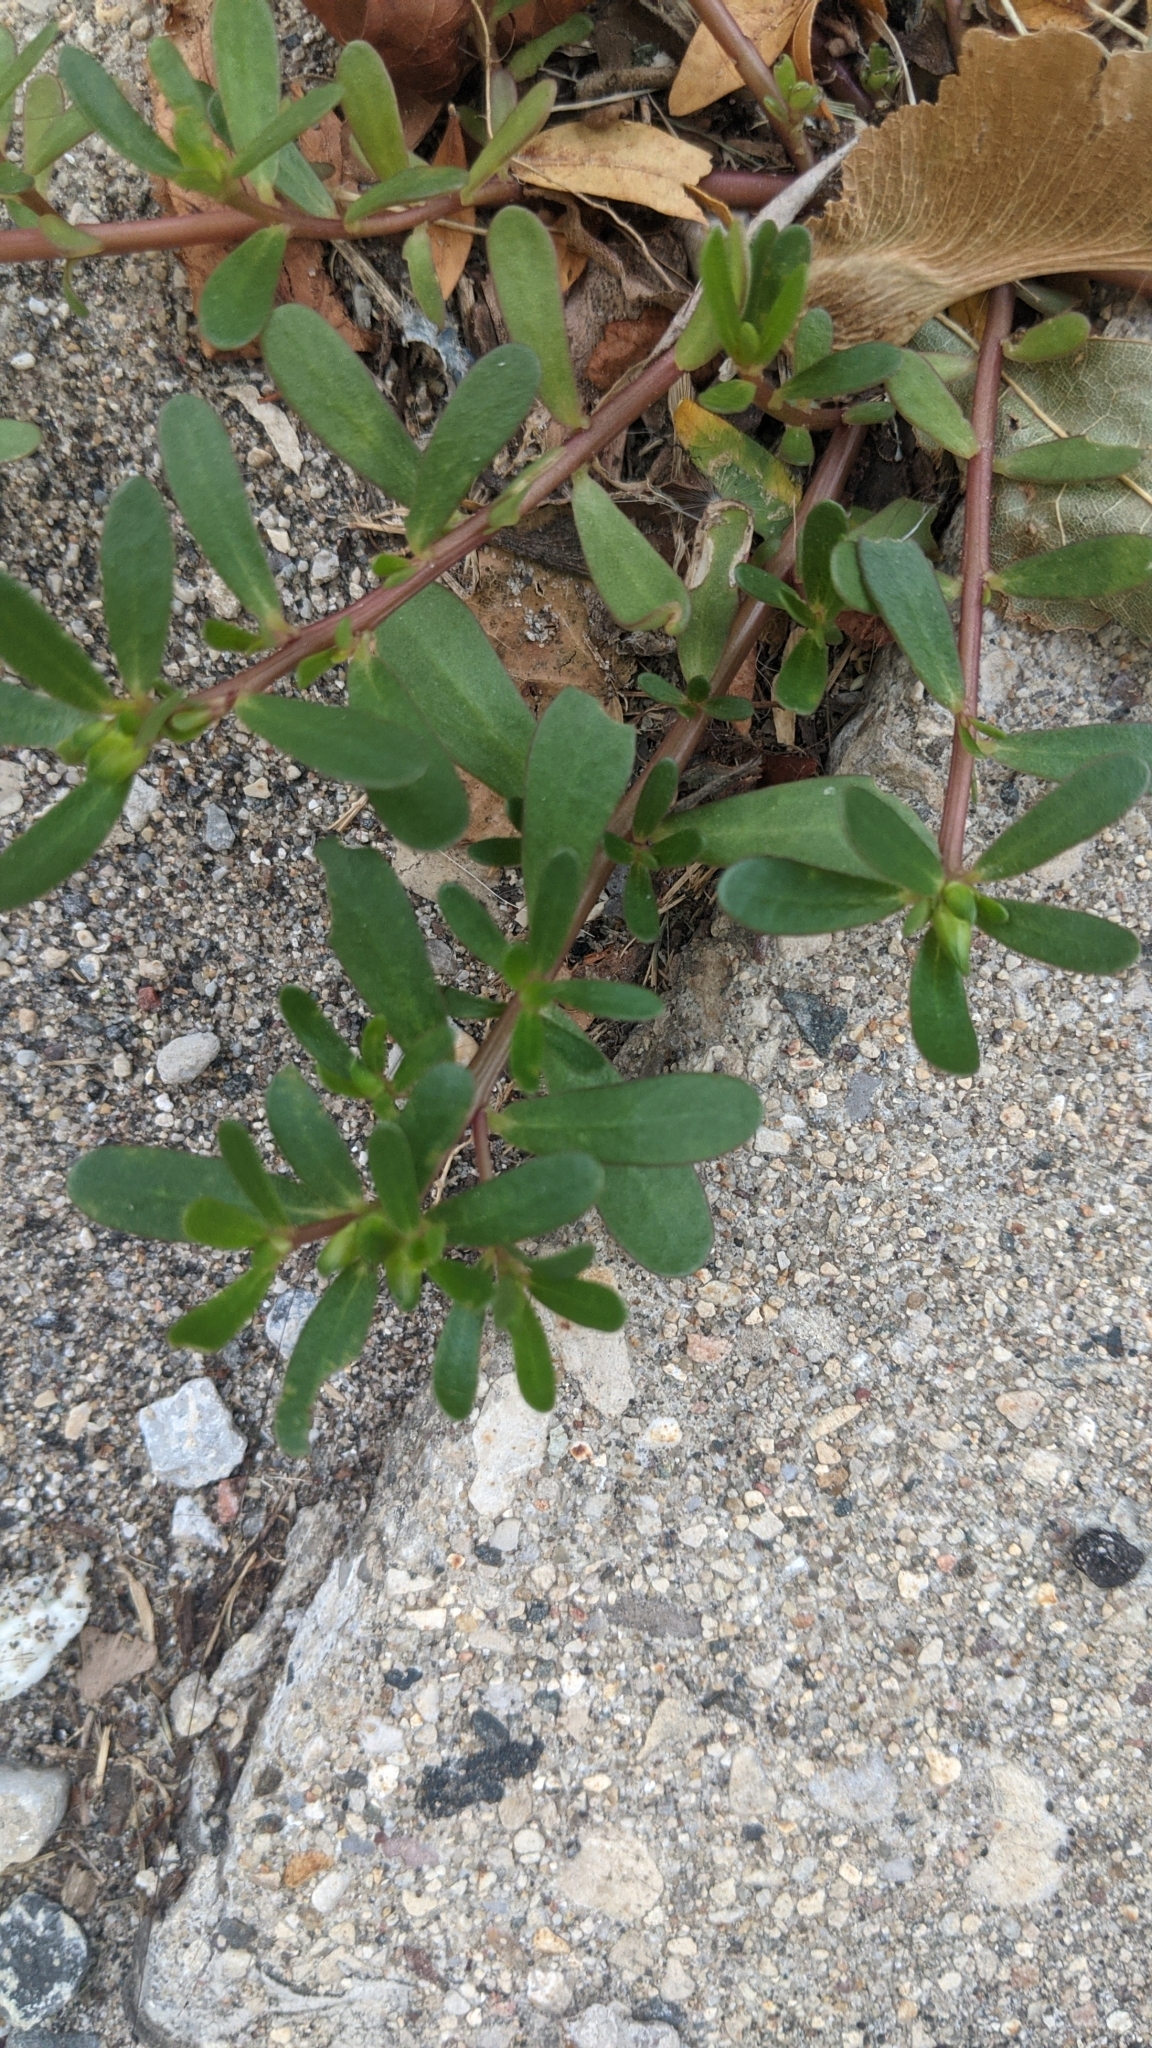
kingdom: Plantae
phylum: Tracheophyta
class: Magnoliopsida
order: Caryophyllales
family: Portulacaceae
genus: Portulaca
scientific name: Portulaca oleracea
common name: Common purslane
